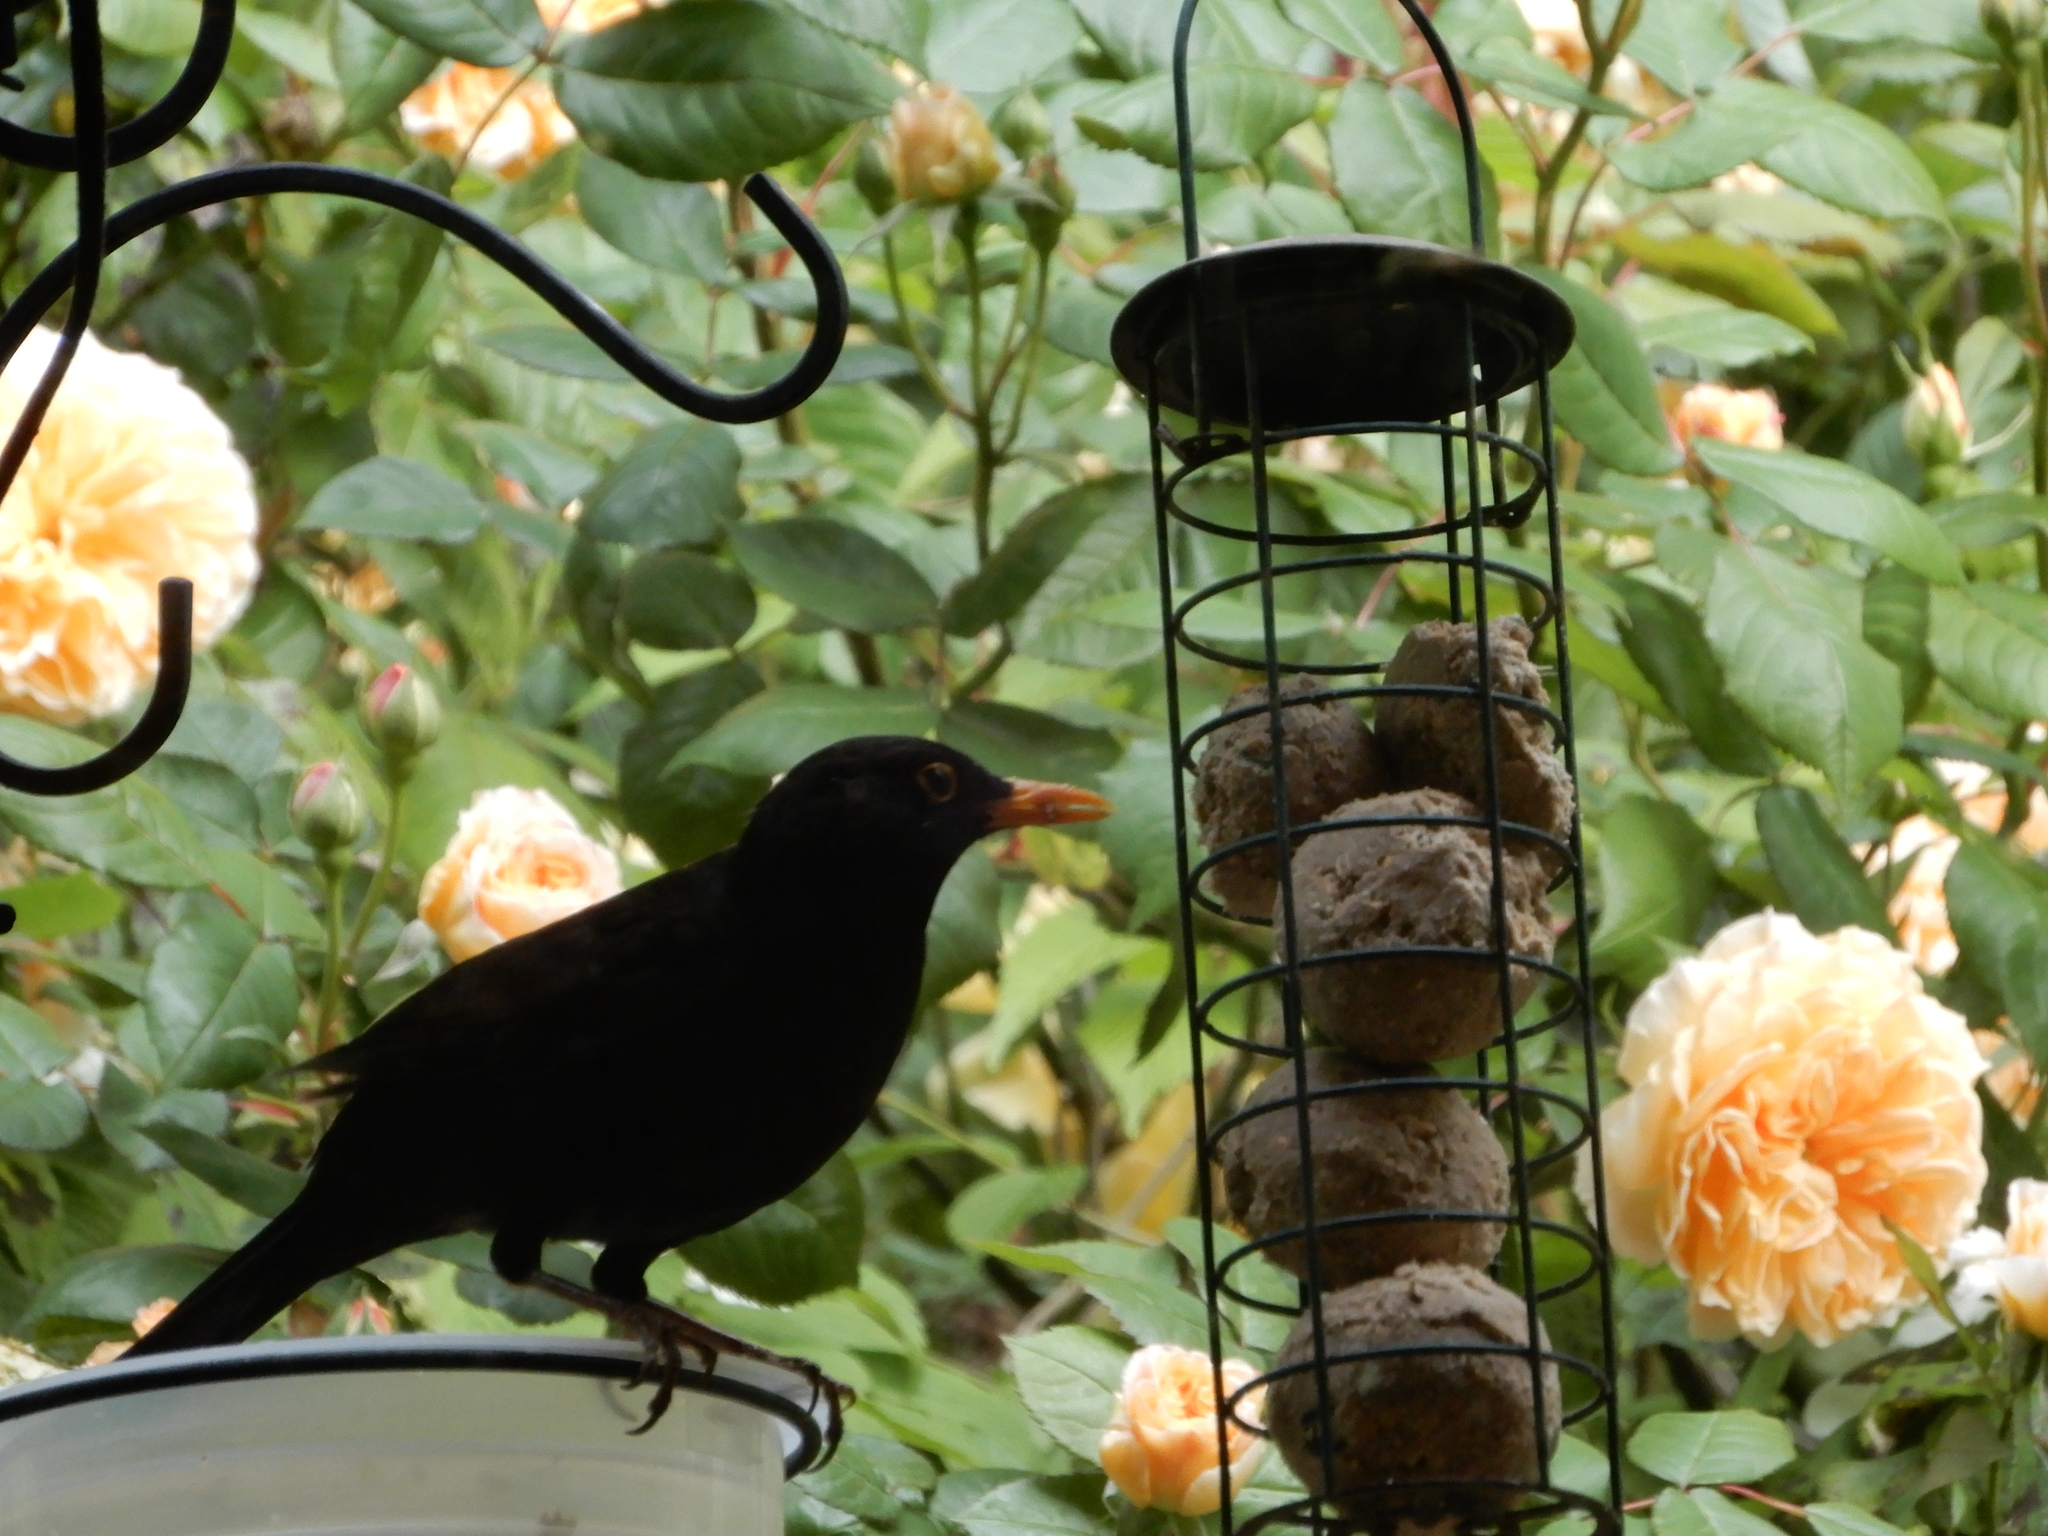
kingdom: Animalia
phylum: Chordata
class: Aves
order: Passeriformes
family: Turdidae
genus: Turdus
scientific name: Turdus merula
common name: Common blackbird
